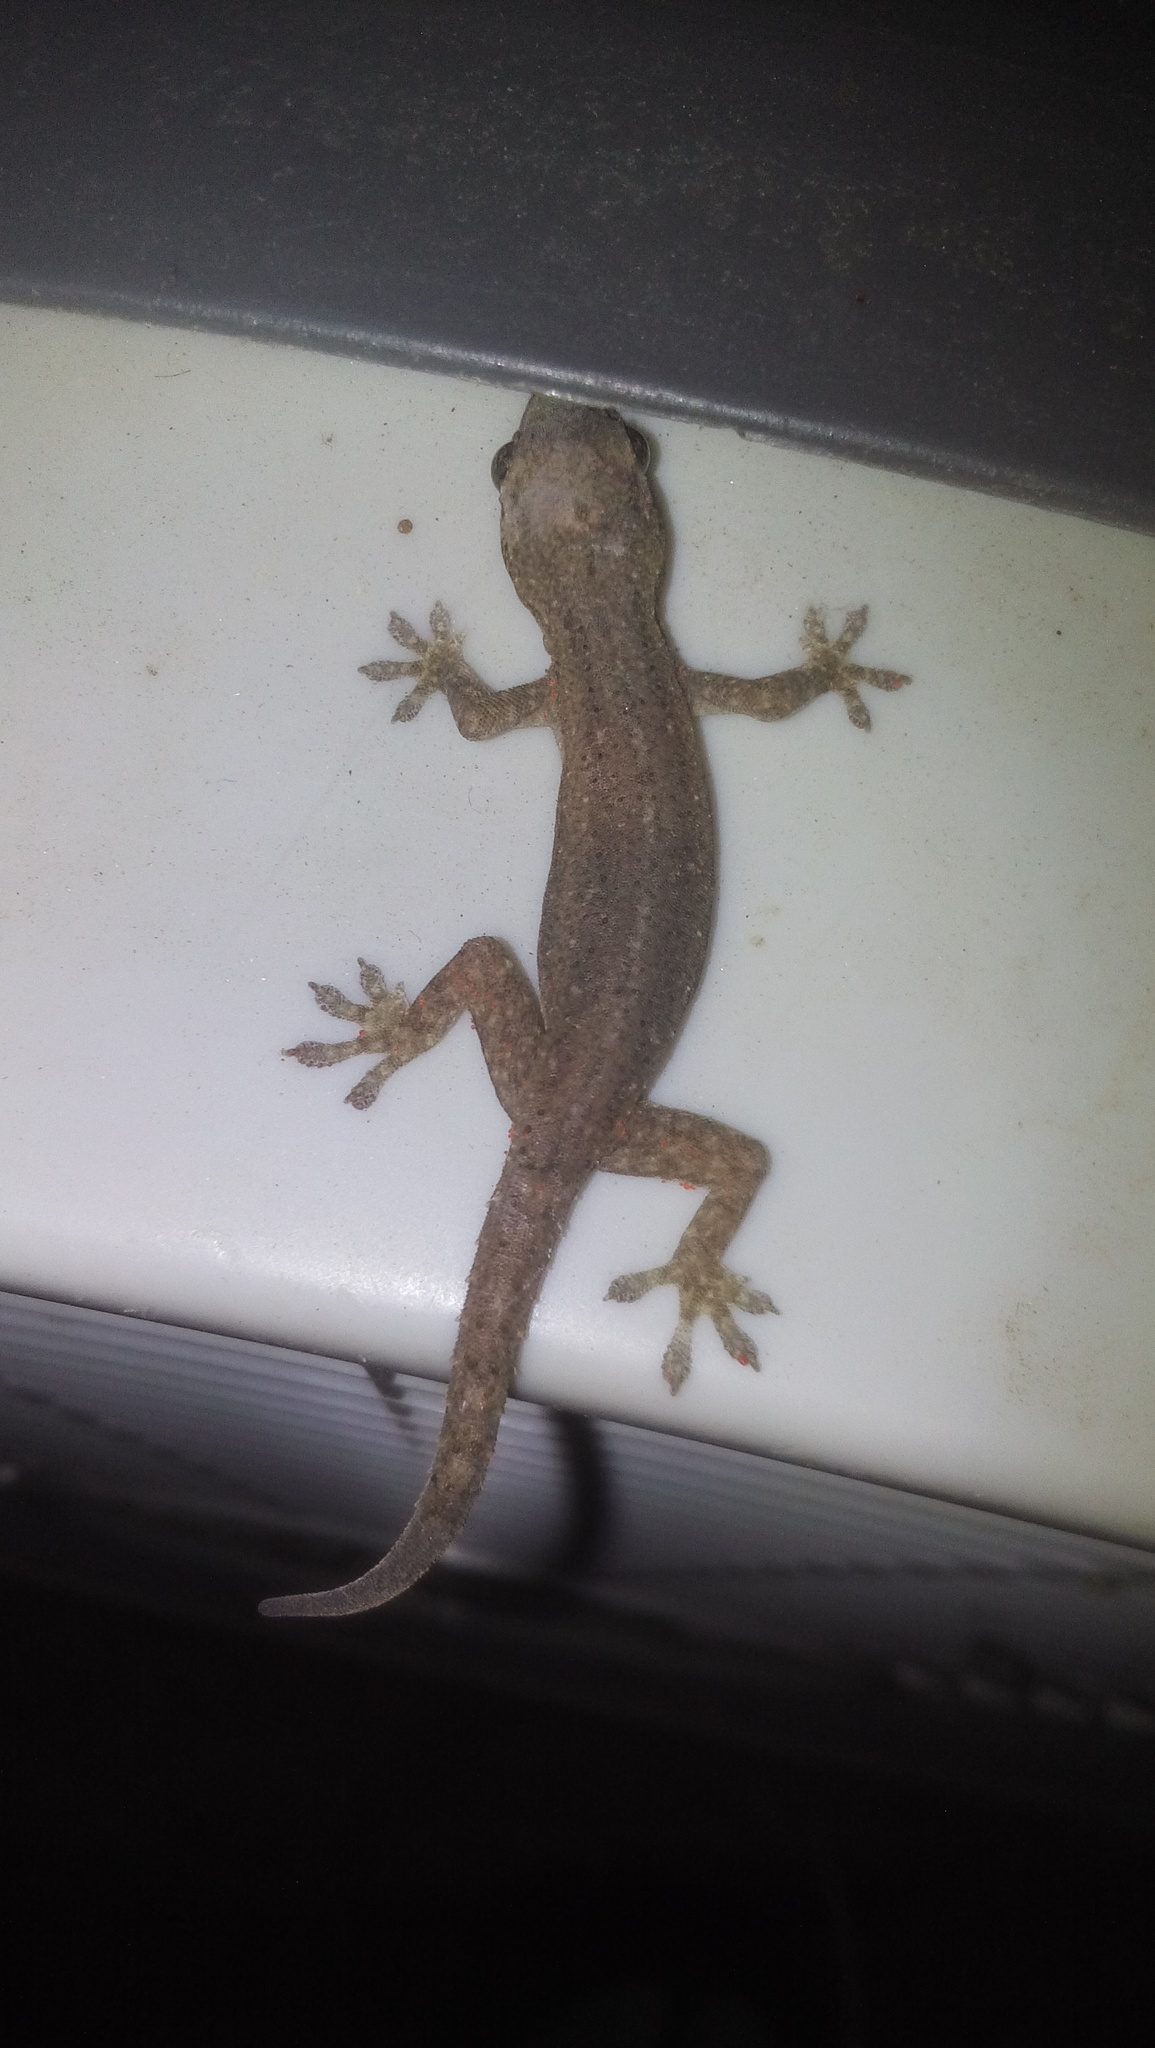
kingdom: Animalia
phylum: Chordata
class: Squamata
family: Gekkonidae
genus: Hemidactylus
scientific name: Hemidactylus frenatus
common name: Common house gecko
